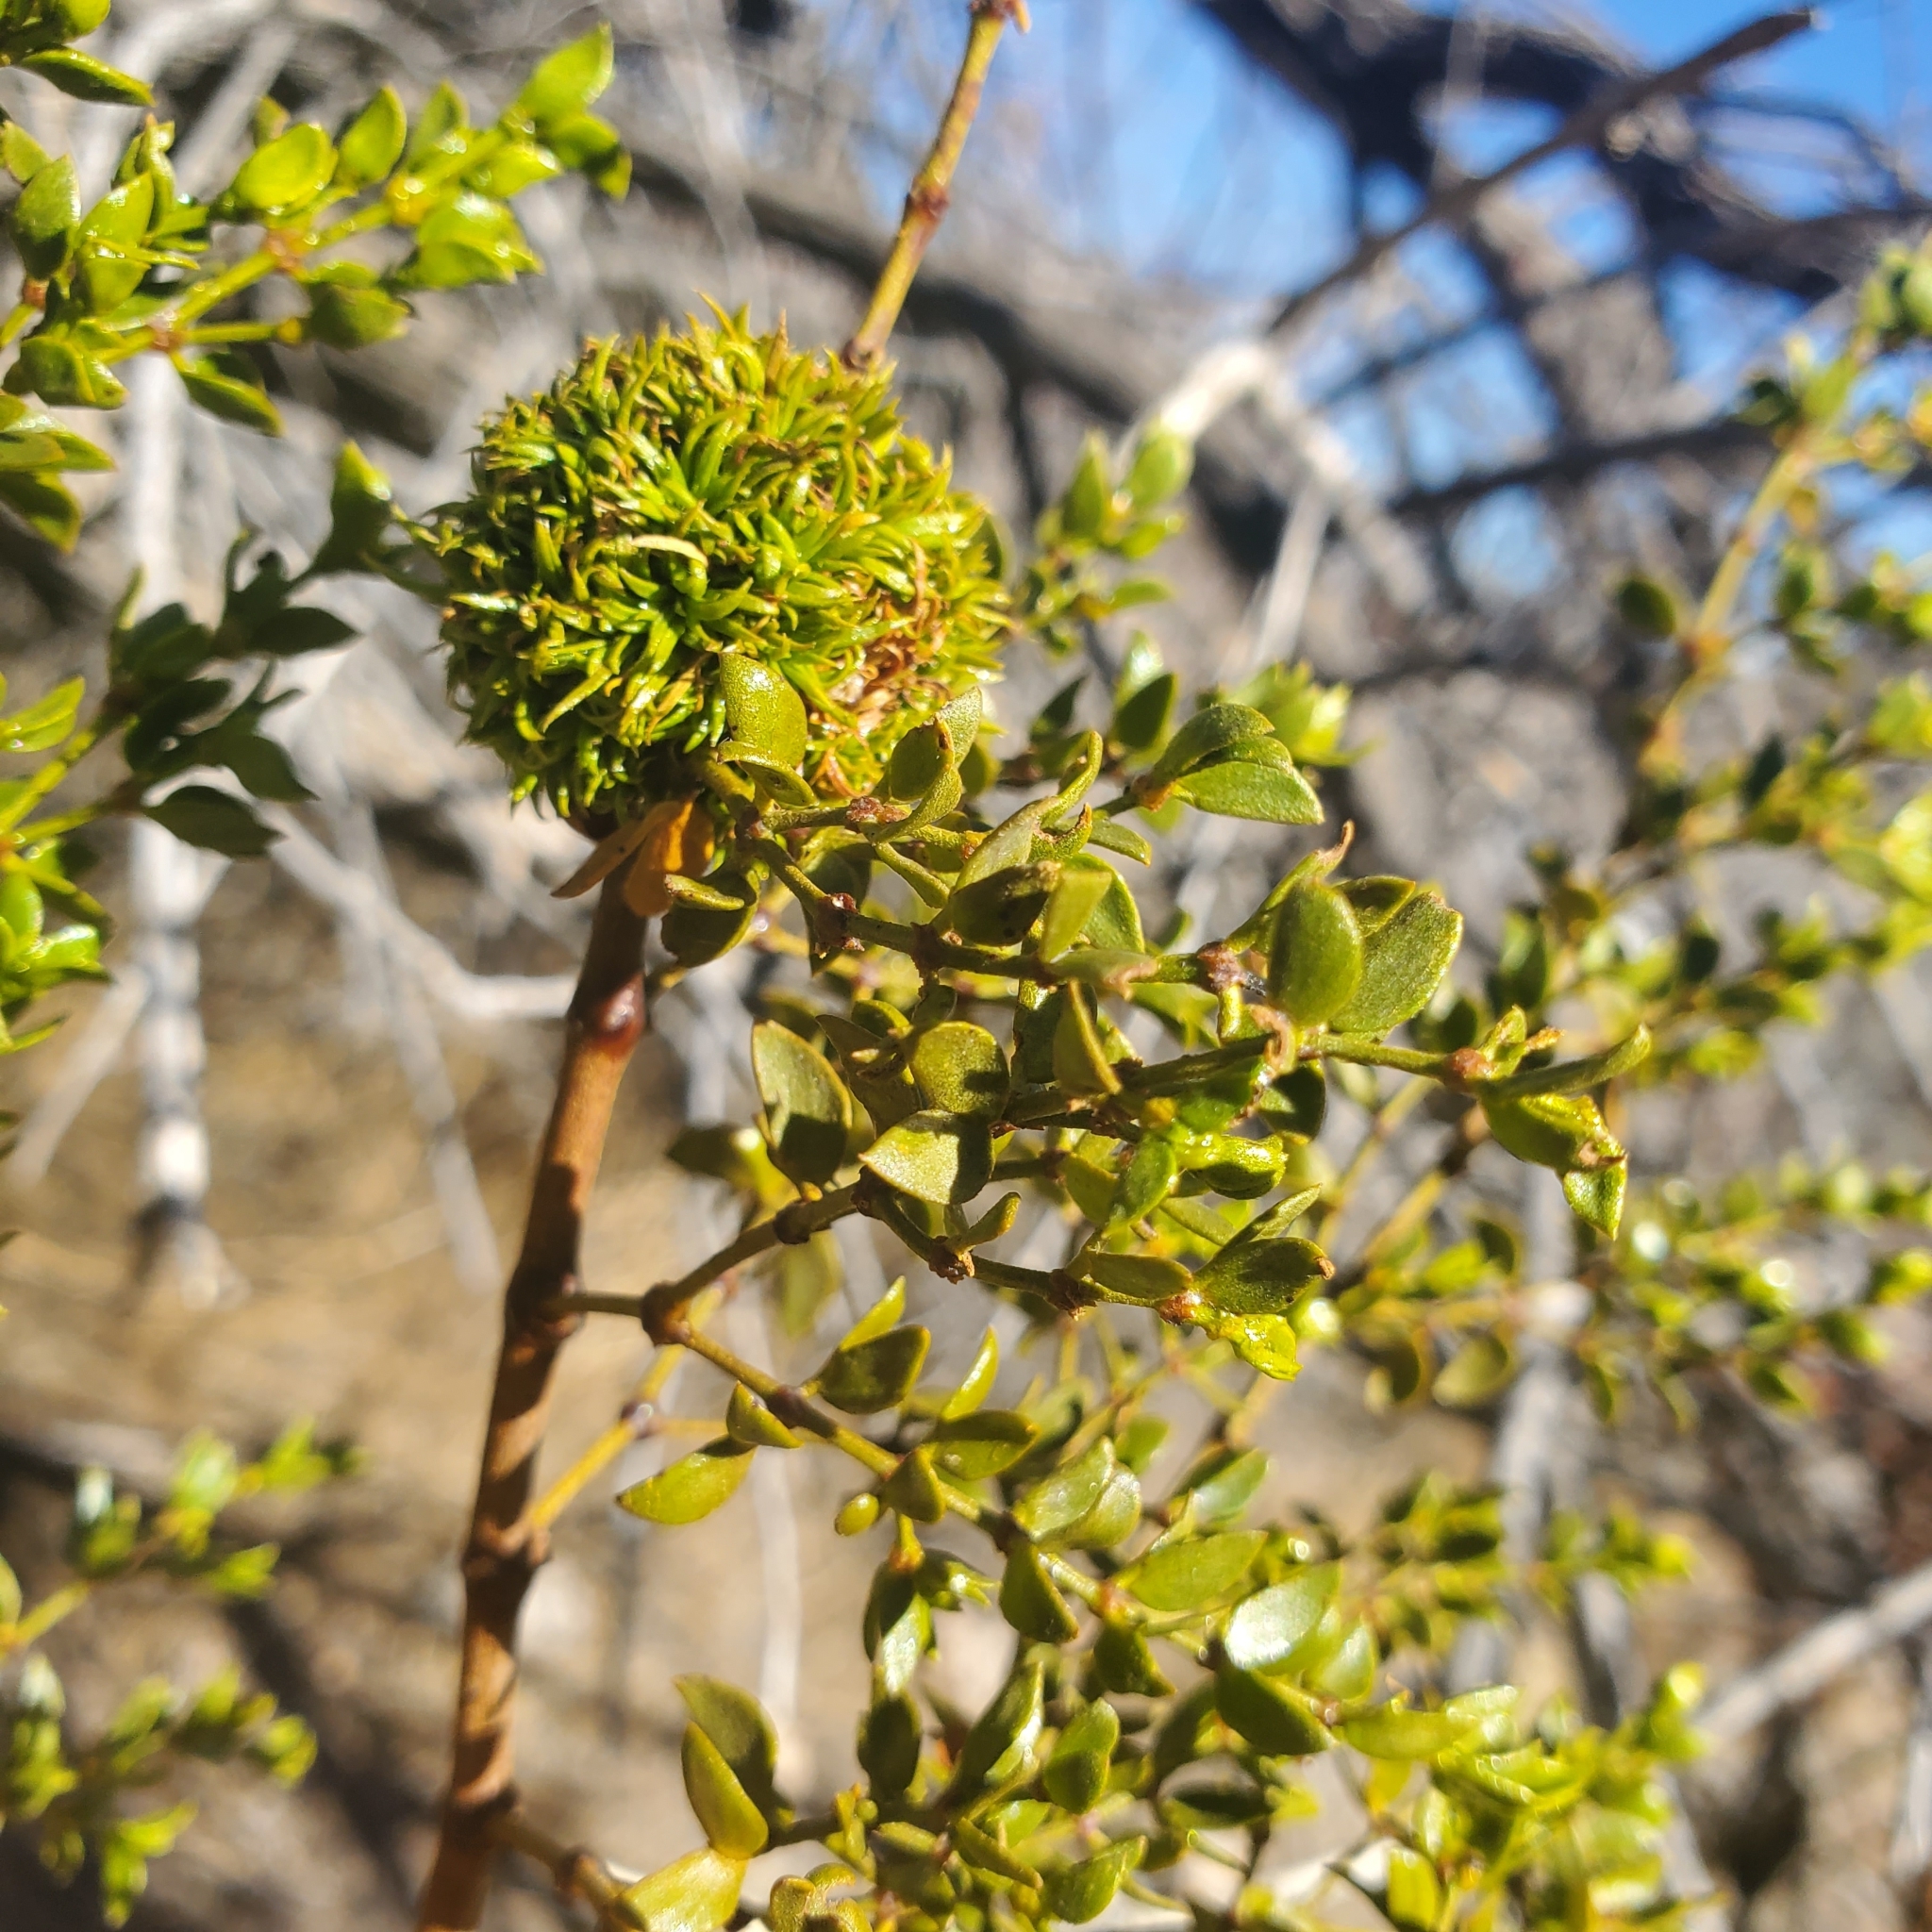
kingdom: Animalia
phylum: Arthropoda
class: Insecta
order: Diptera
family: Cecidomyiidae
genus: Asphondylia
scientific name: Asphondylia auripila
